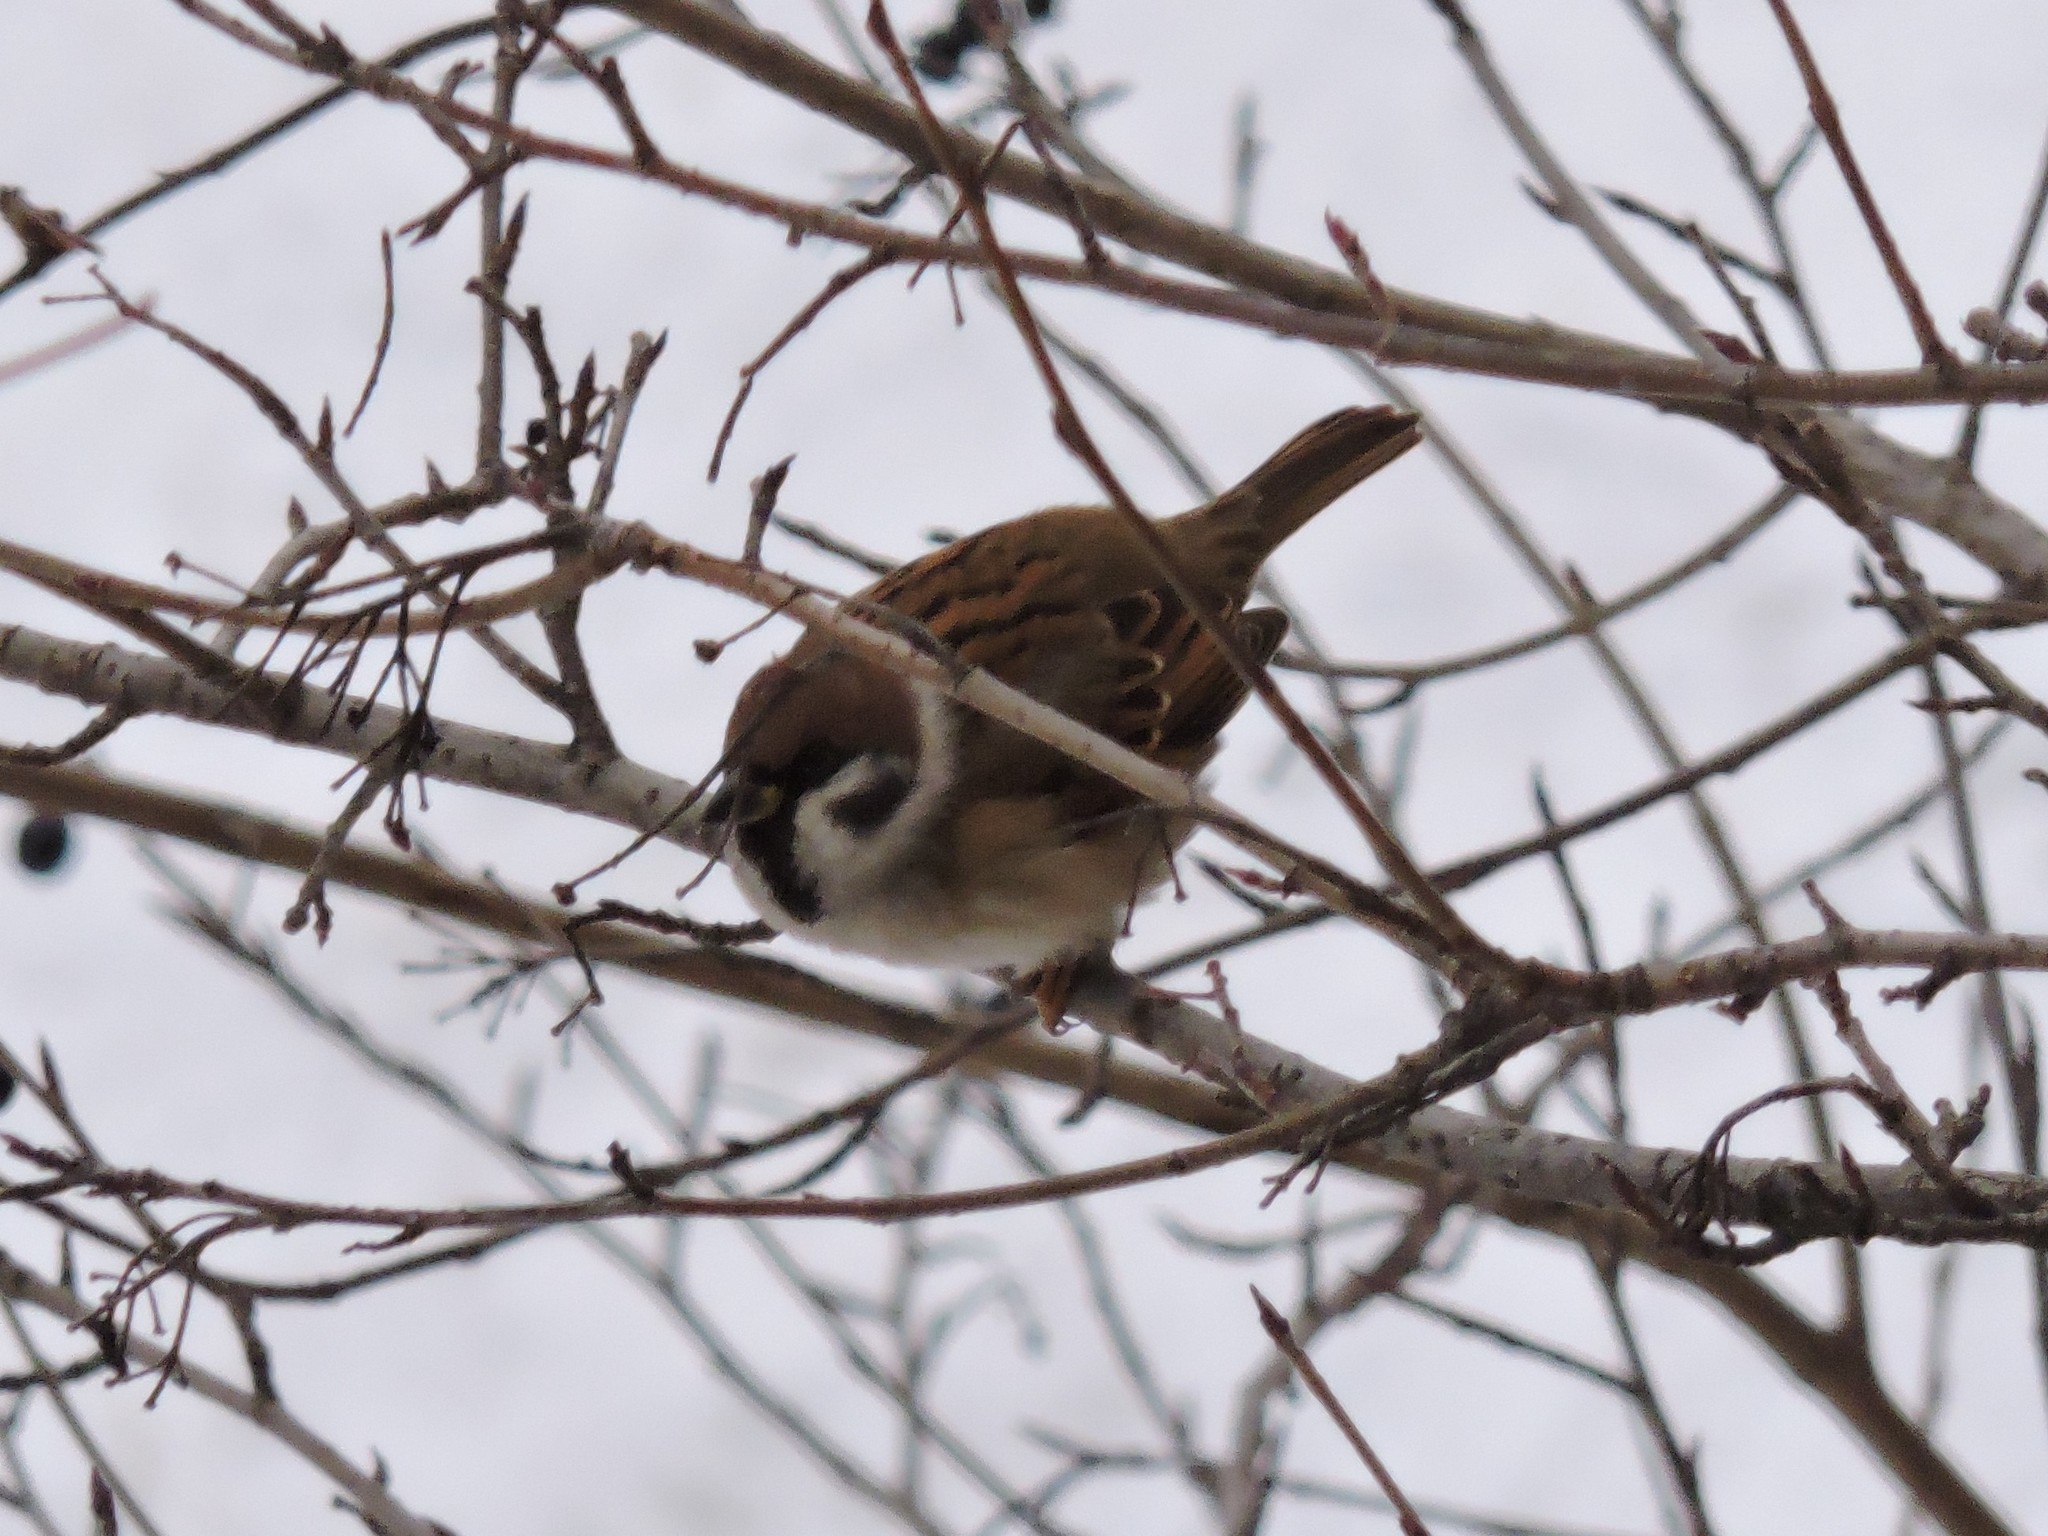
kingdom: Animalia
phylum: Chordata
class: Aves
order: Passeriformes
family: Passeridae
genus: Passer
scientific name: Passer montanus
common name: Eurasian tree sparrow
